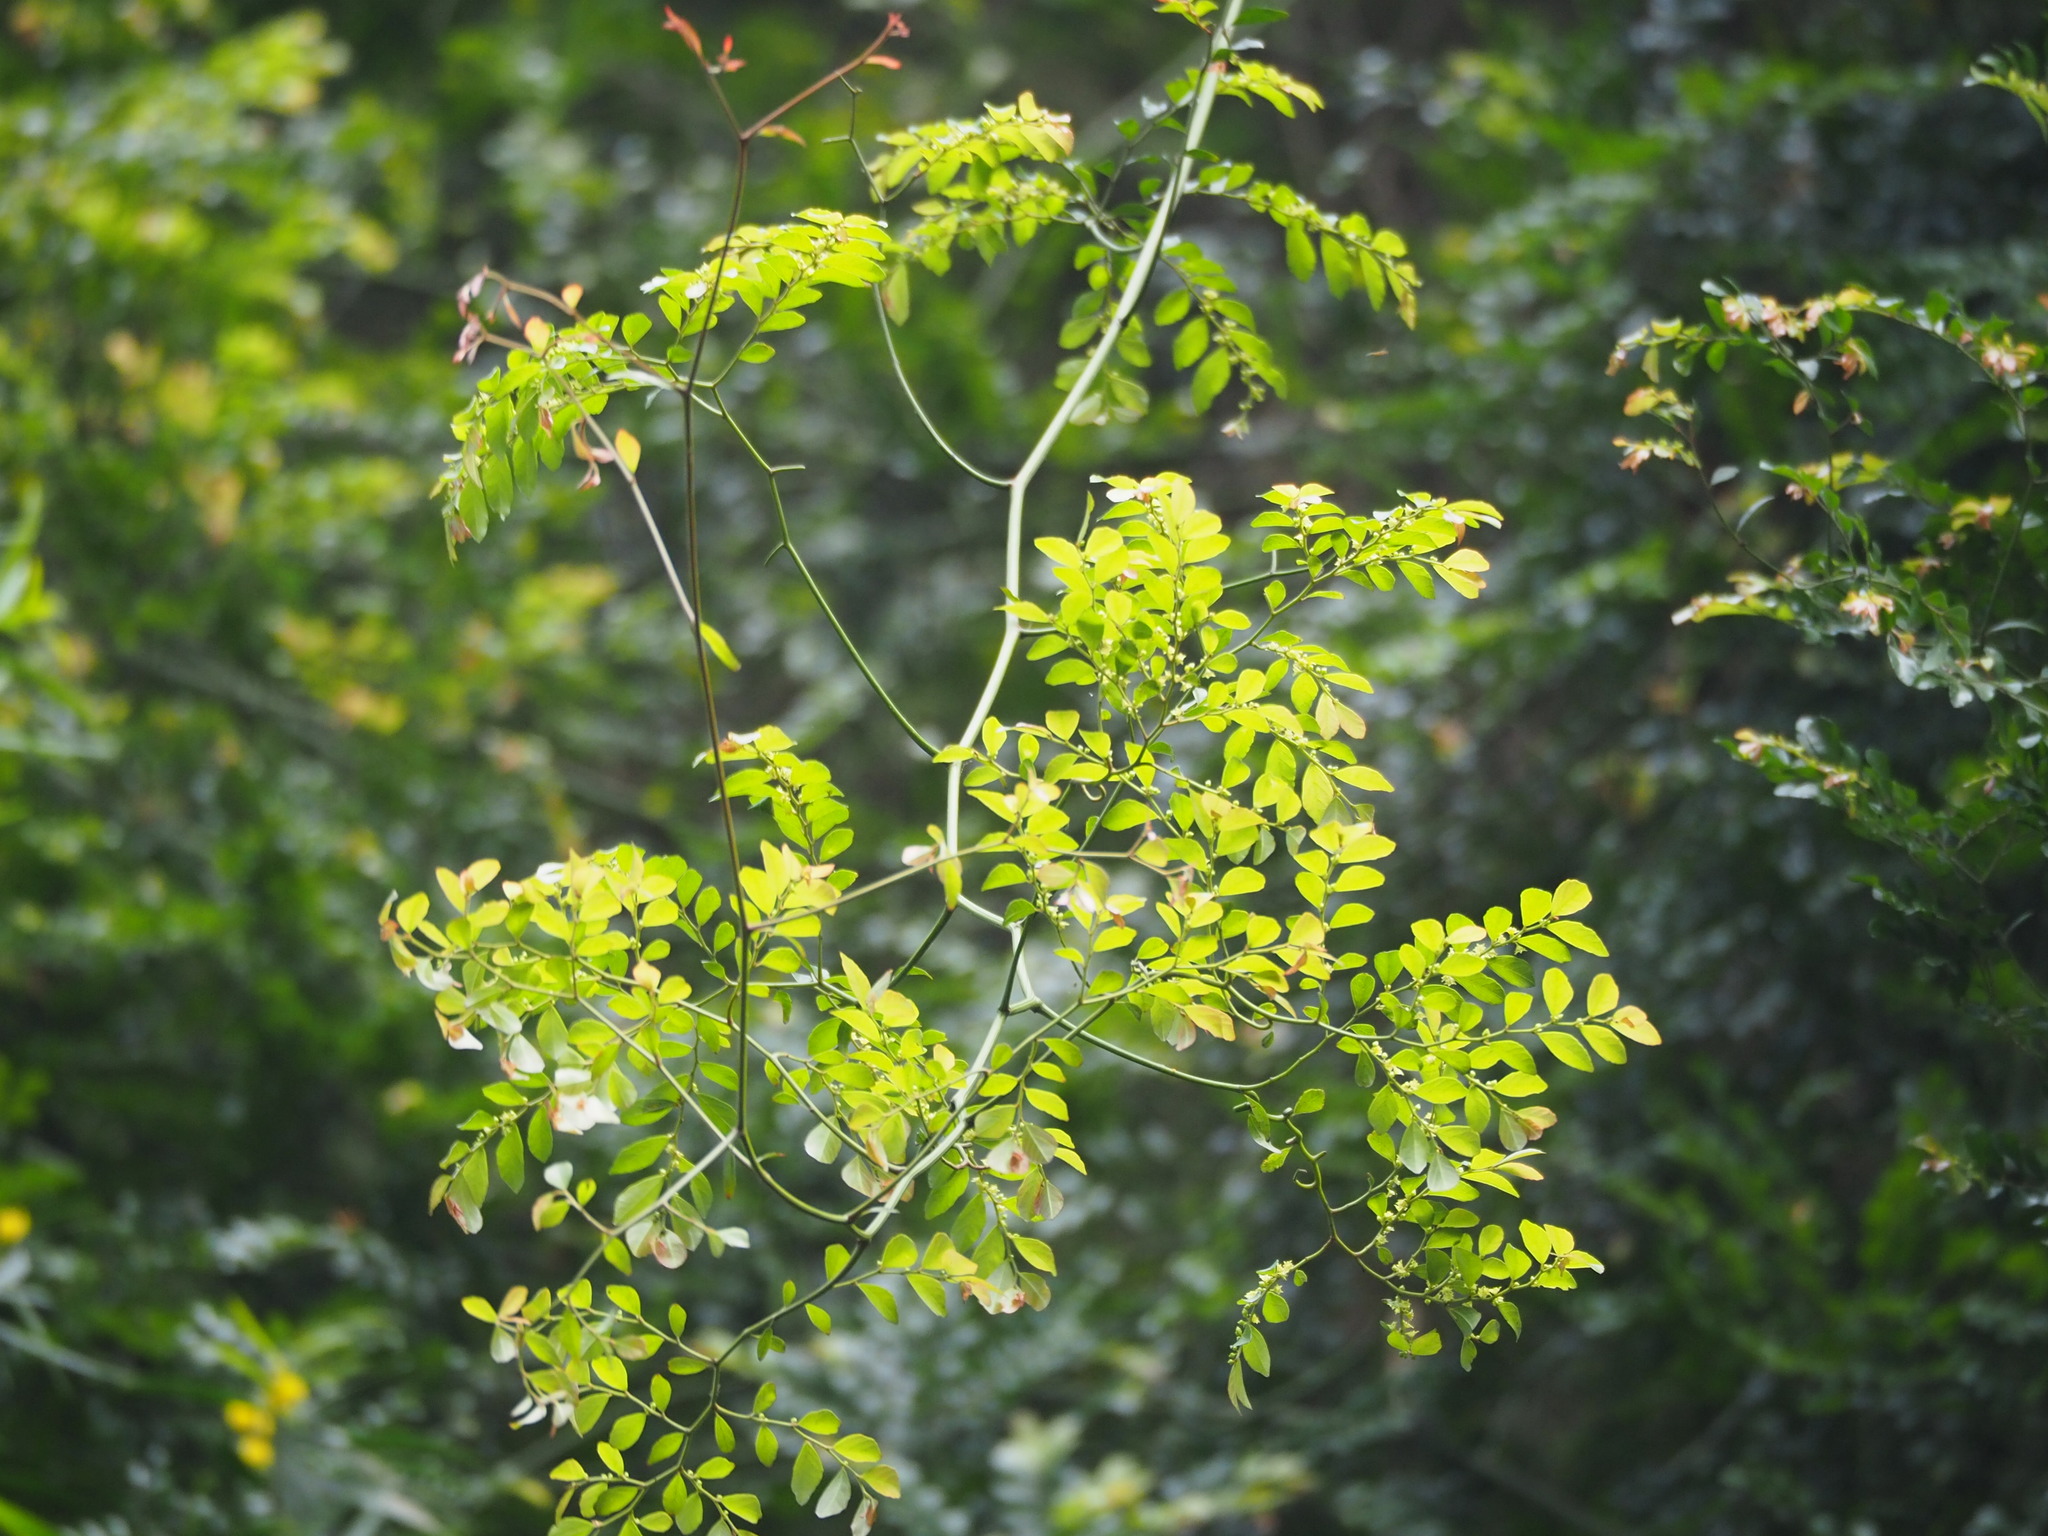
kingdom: Plantae
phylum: Tracheophyta
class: Magnoliopsida
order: Rosales
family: Rhamnaceae
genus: Ventilago
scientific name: Ventilago elegans
